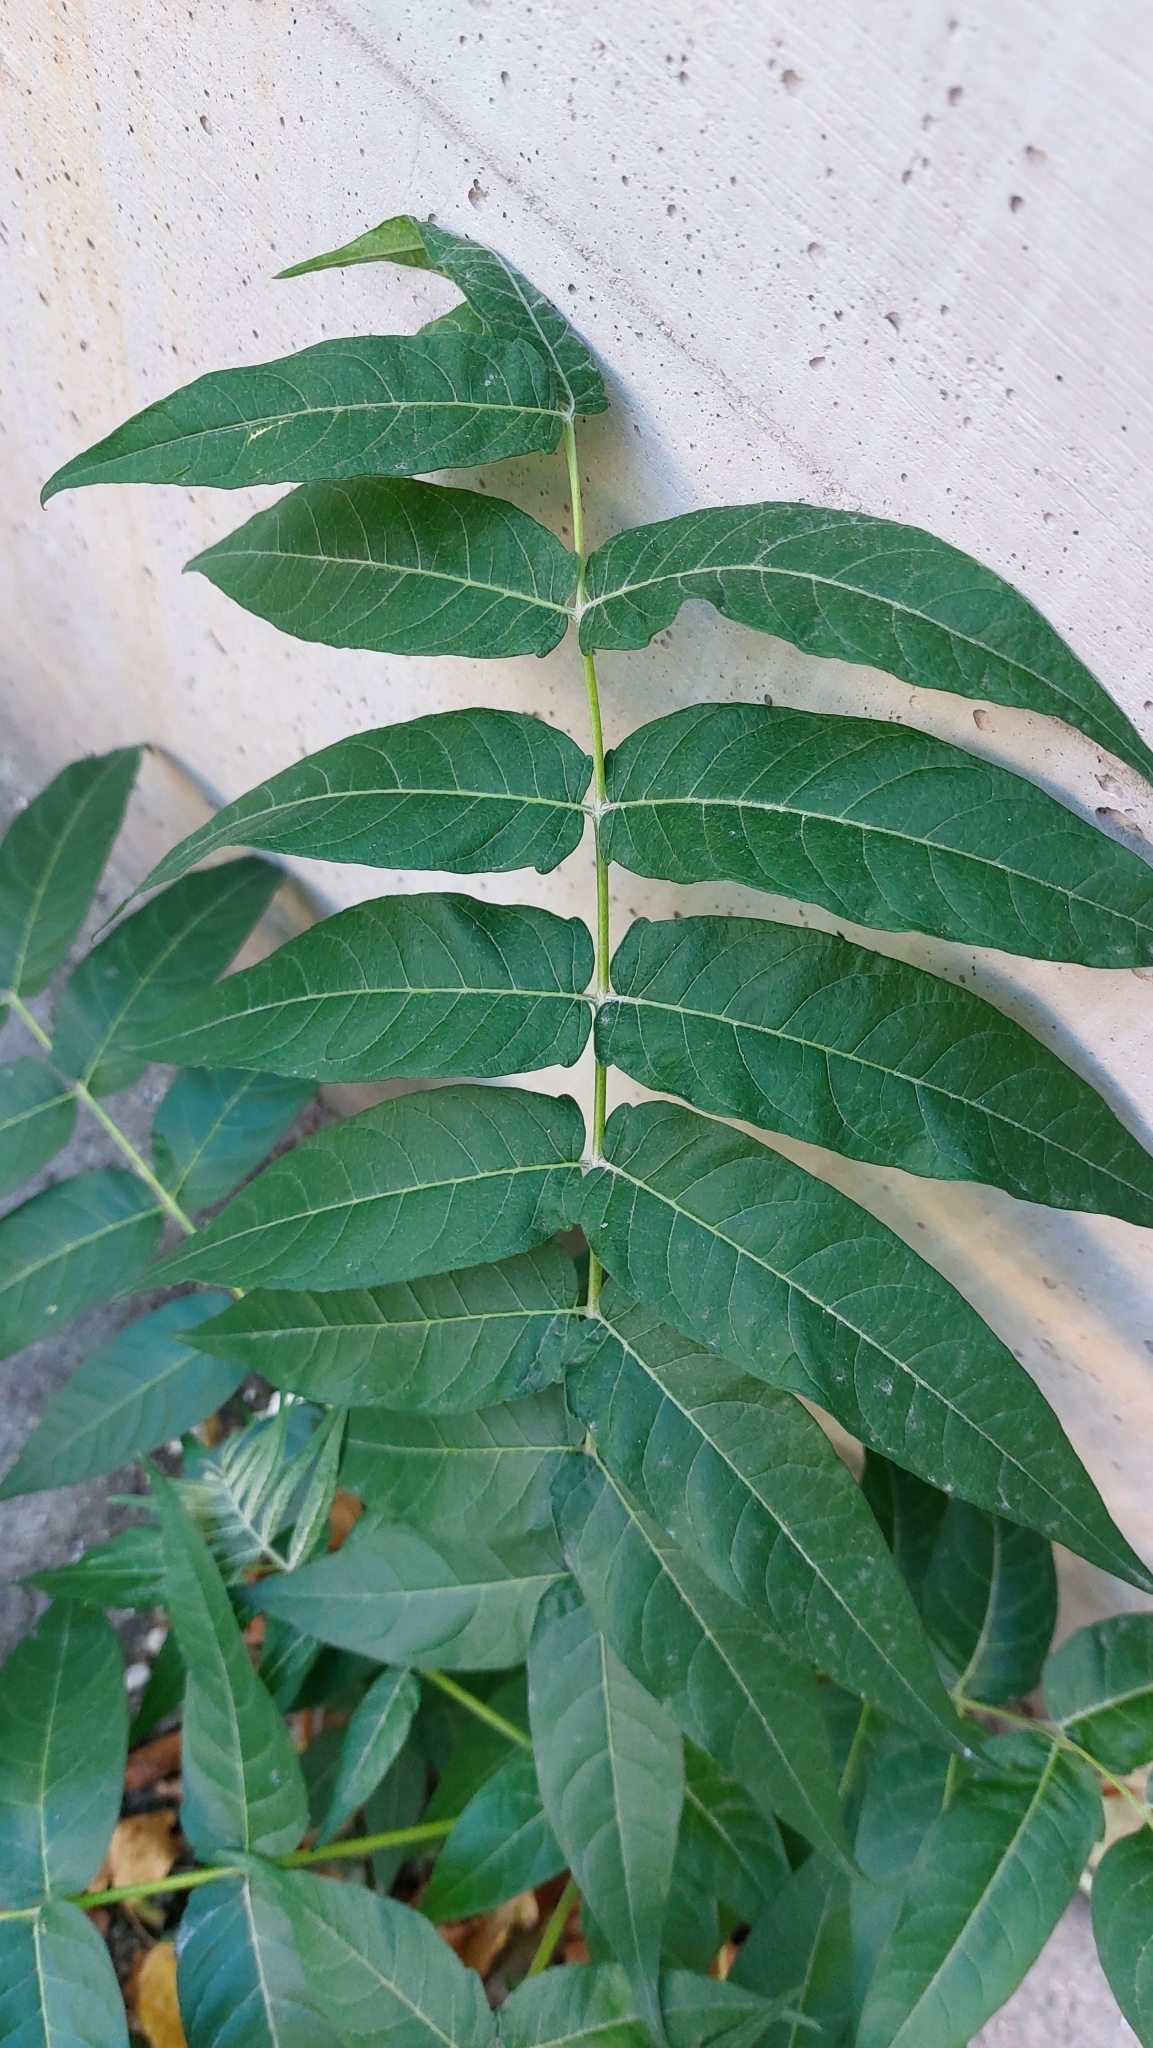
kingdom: Plantae
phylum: Tracheophyta
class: Magnoliopsida
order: Sapindales
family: Simaroubaceae
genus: Ailanthus
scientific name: Ailanthus altissima
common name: Tree-of-heaven
